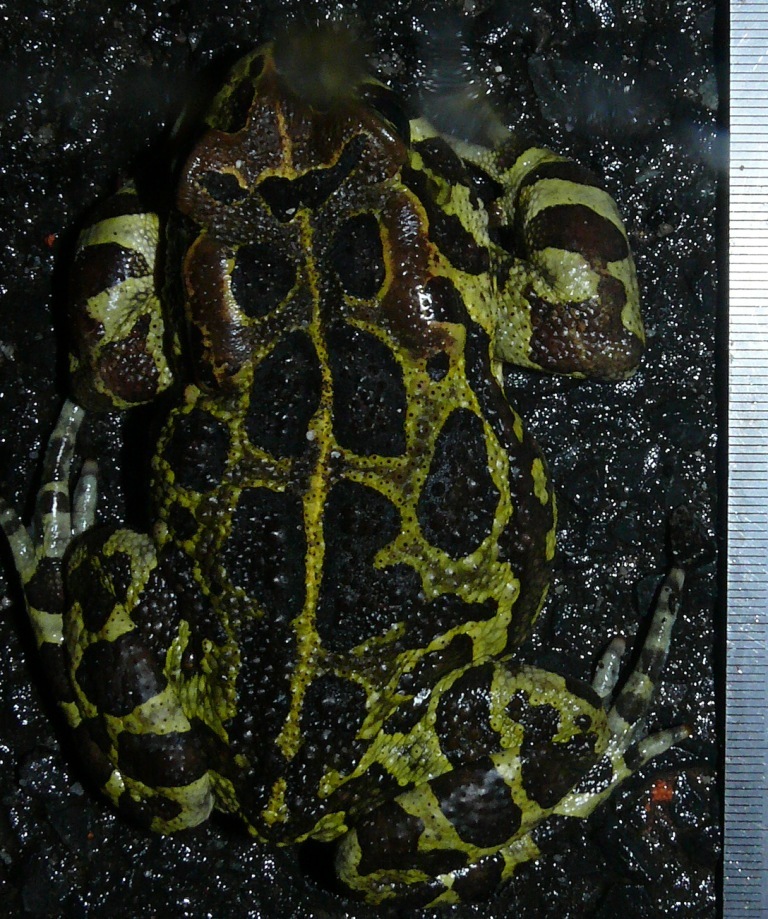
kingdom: Animalia
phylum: Chordata
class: Amphibia
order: Anura
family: Bufonidae
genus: Sclerophrys
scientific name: Sclerophrys pantherina
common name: Panther toad
